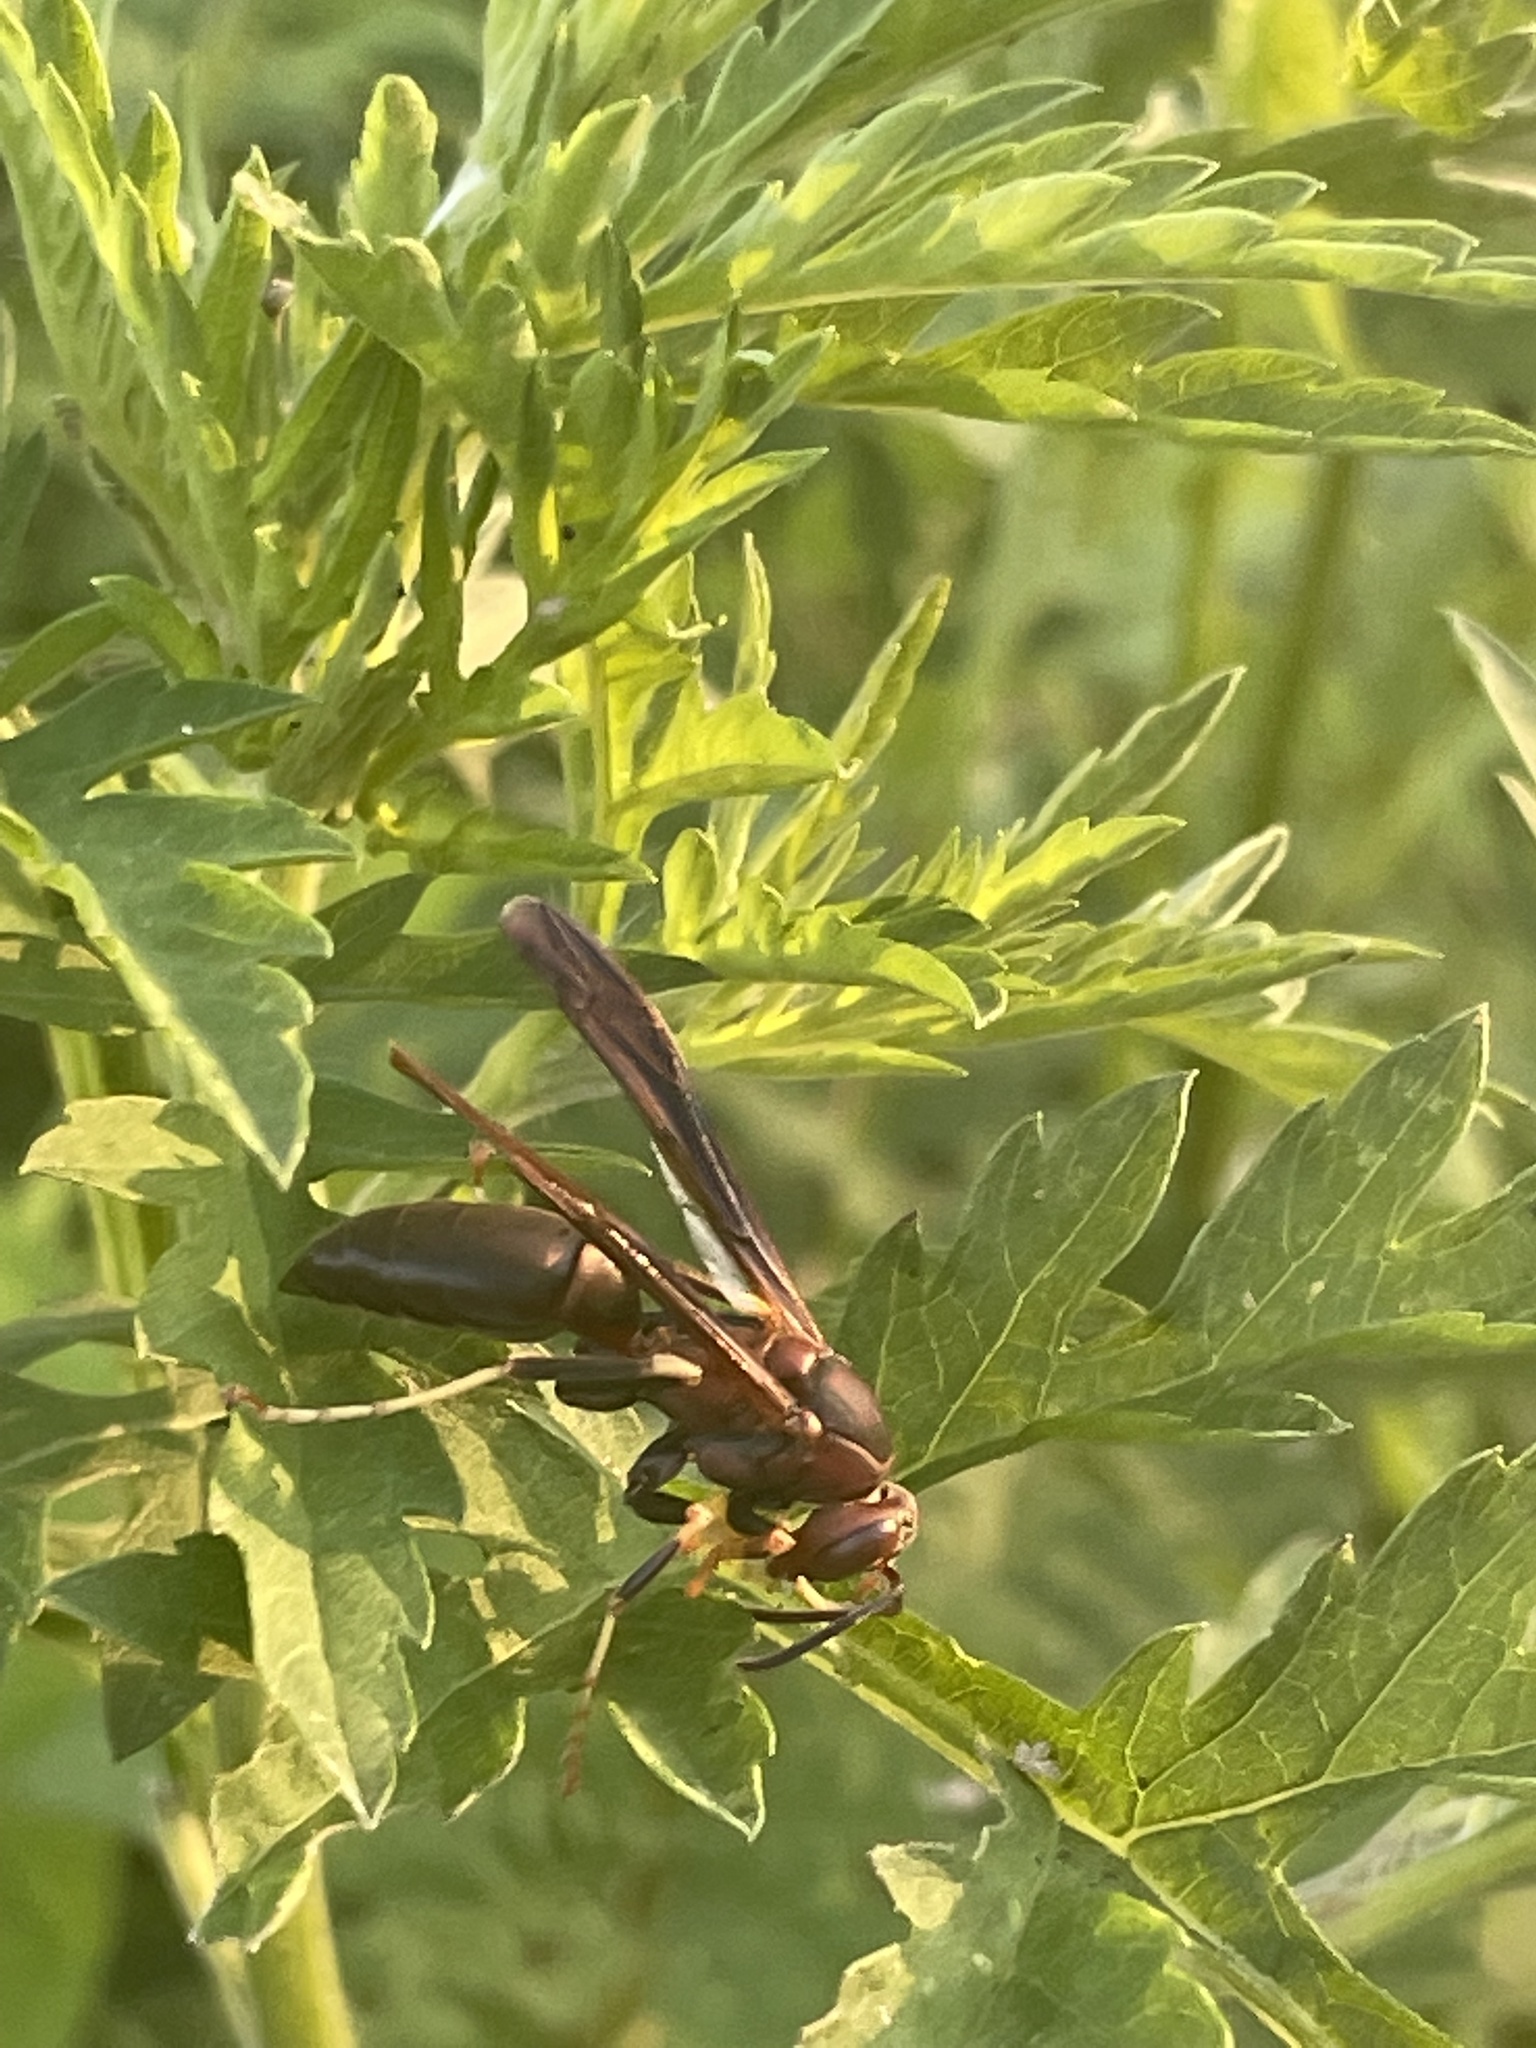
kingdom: Animalia
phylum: Arthropoda
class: Insecta
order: Hymenoptera
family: Eumenidae
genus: Polistes
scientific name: Polistes metricus
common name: Metric paper wasp
